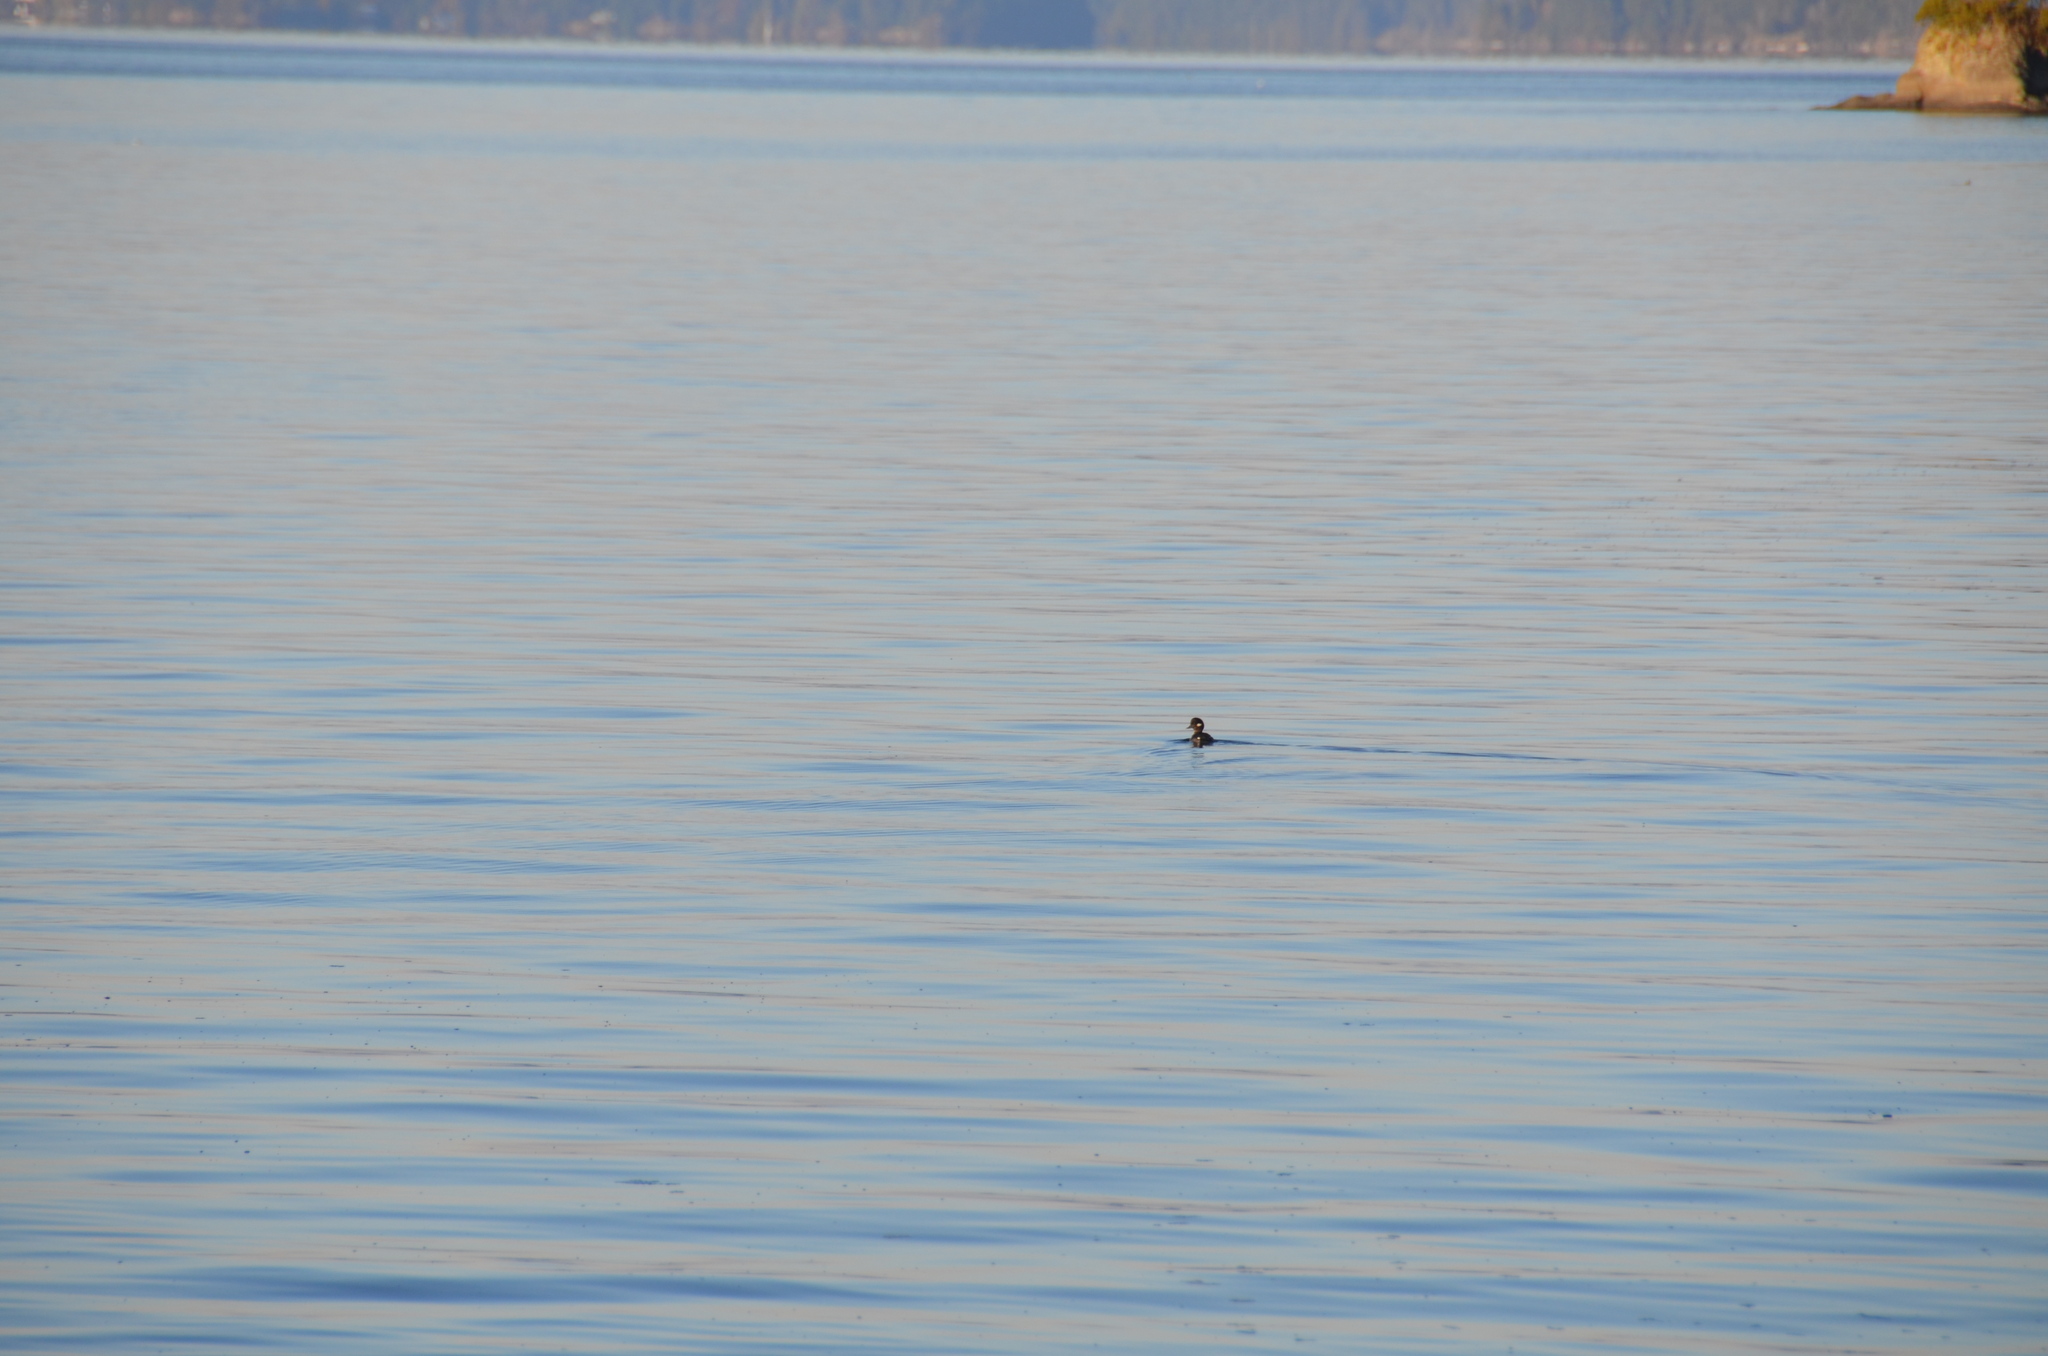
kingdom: Animalia
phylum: Chordata
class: Aves
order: Anseriformes
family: Anatidae
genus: Bucephala
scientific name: Bucephala albeola
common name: Bufflehead
